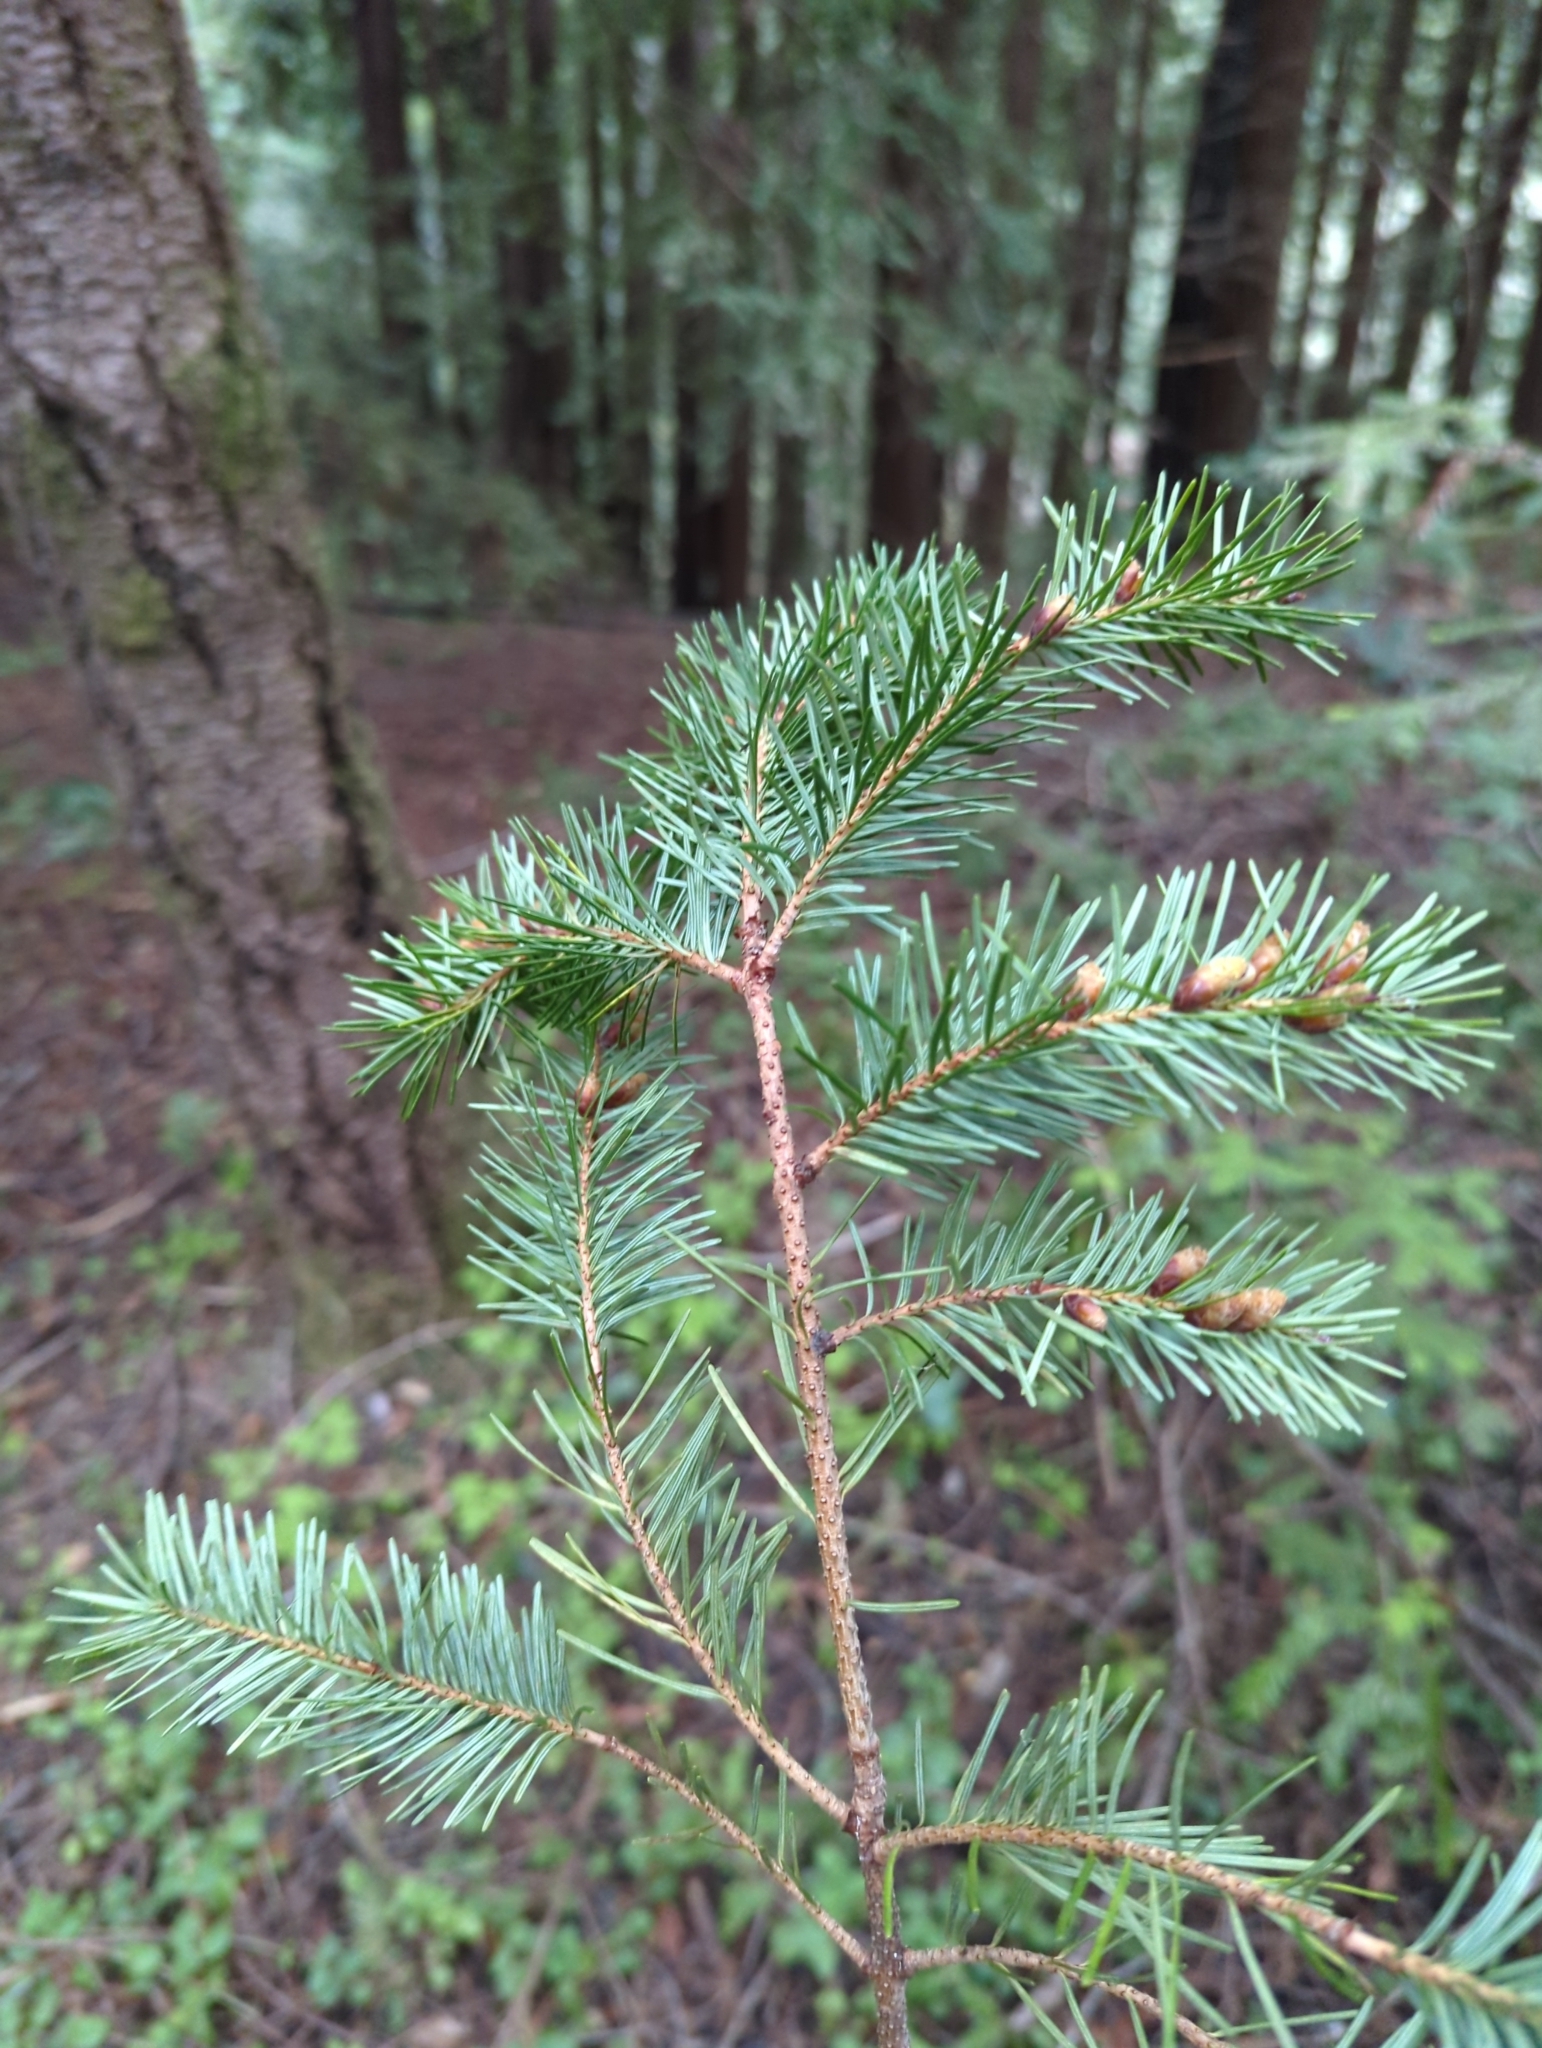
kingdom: Plantae
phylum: Tracheophyta
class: Pinopsida
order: Pinales
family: Pinaceae
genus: Pseudotsuga
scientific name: Pseudotsuga menziesii
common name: Douglas fir
